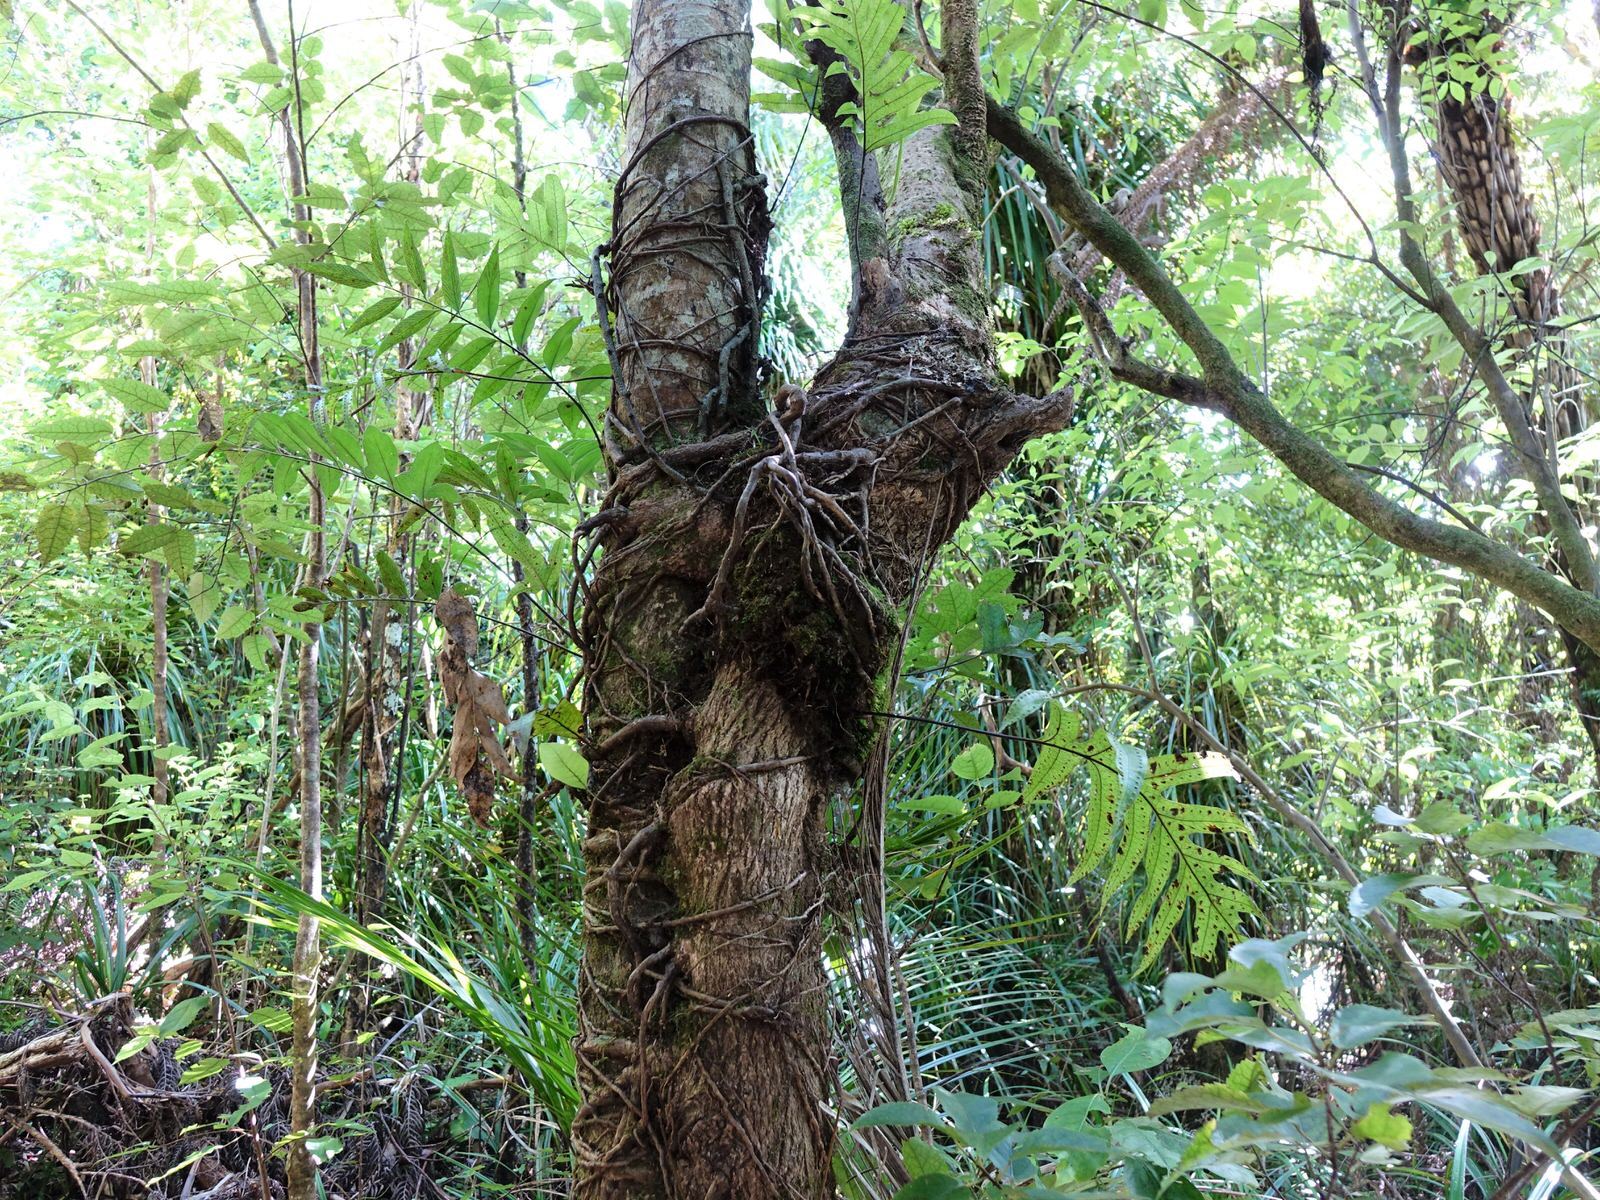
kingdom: Plantae
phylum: Tracheophyta
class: Magnoliopsida
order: Apiales
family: Griseliniaceae
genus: Griselinia
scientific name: Griselinia lucida
